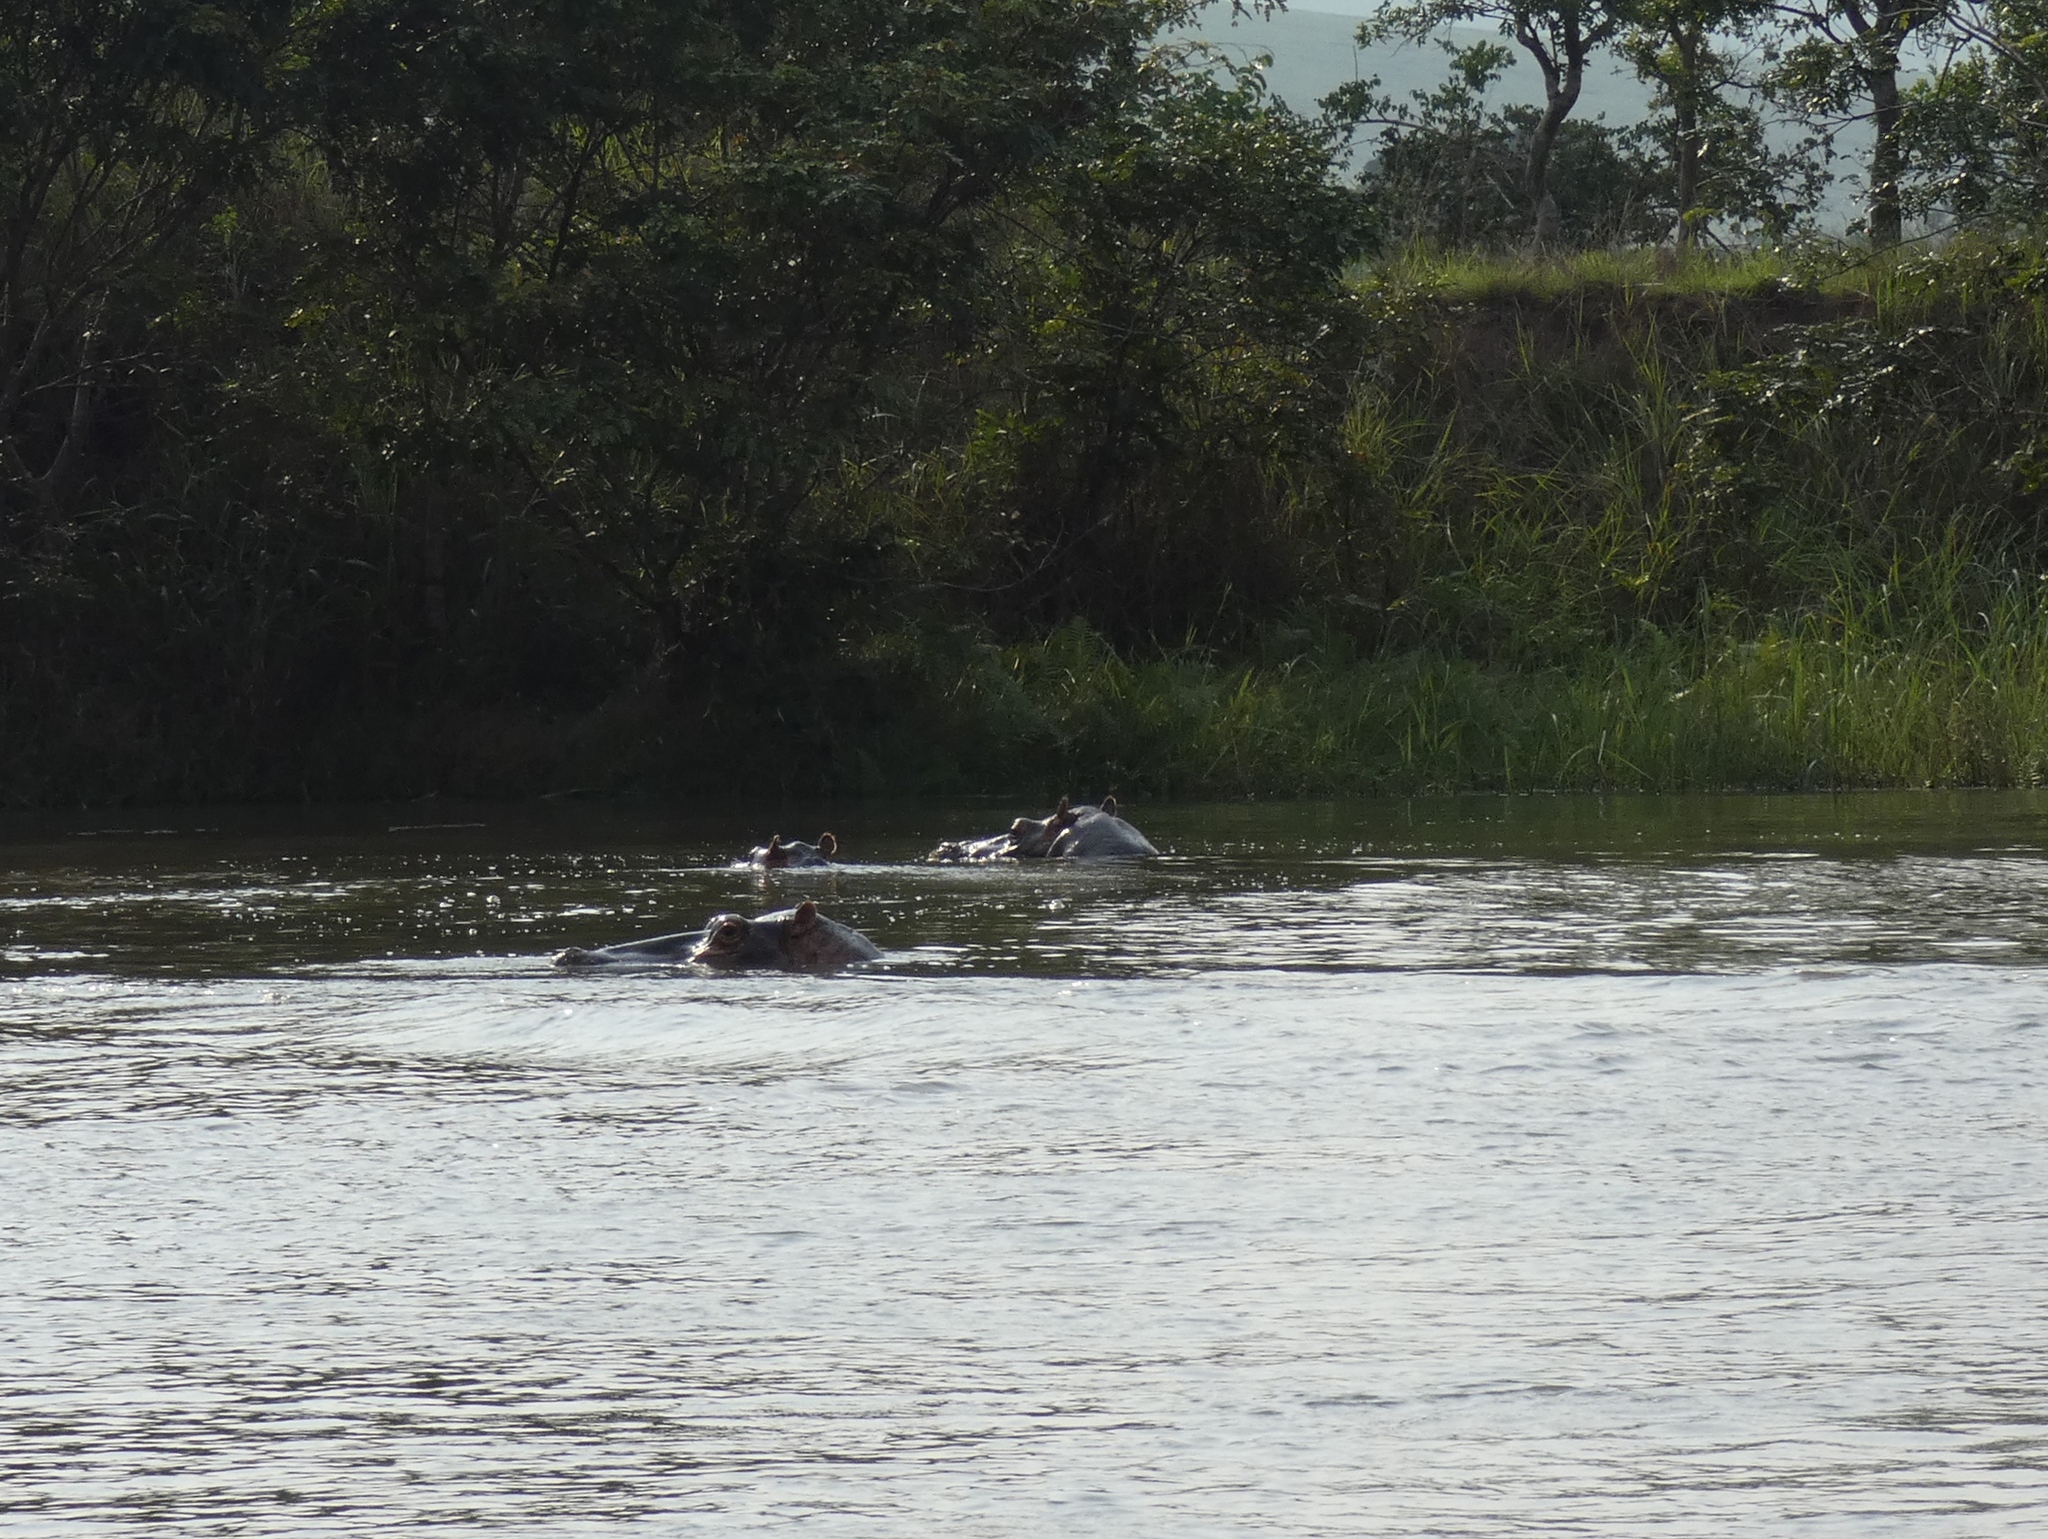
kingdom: Animalia
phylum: Chordata
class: Mammalia
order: Artiodactyla
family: Hippopotamidae
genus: Hippopotamus
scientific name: Hippopotamus amphibius
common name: Common hippopotamus
